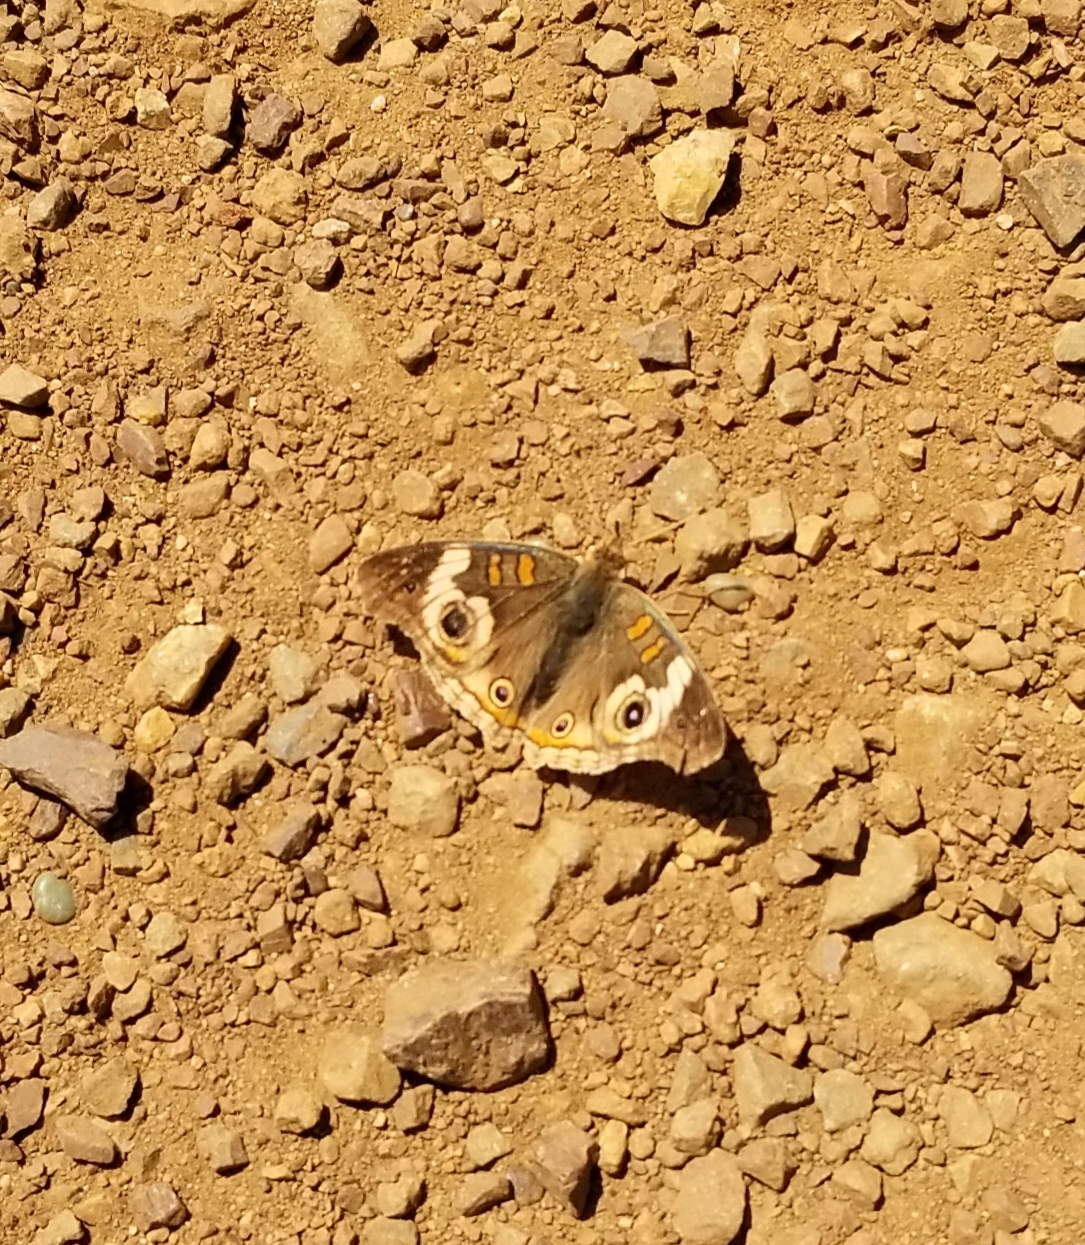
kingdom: Animalia
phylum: Arthropoda
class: Insecta
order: Lepidoptera
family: Nymphalidae
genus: Junonia
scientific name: Junonia grisea
